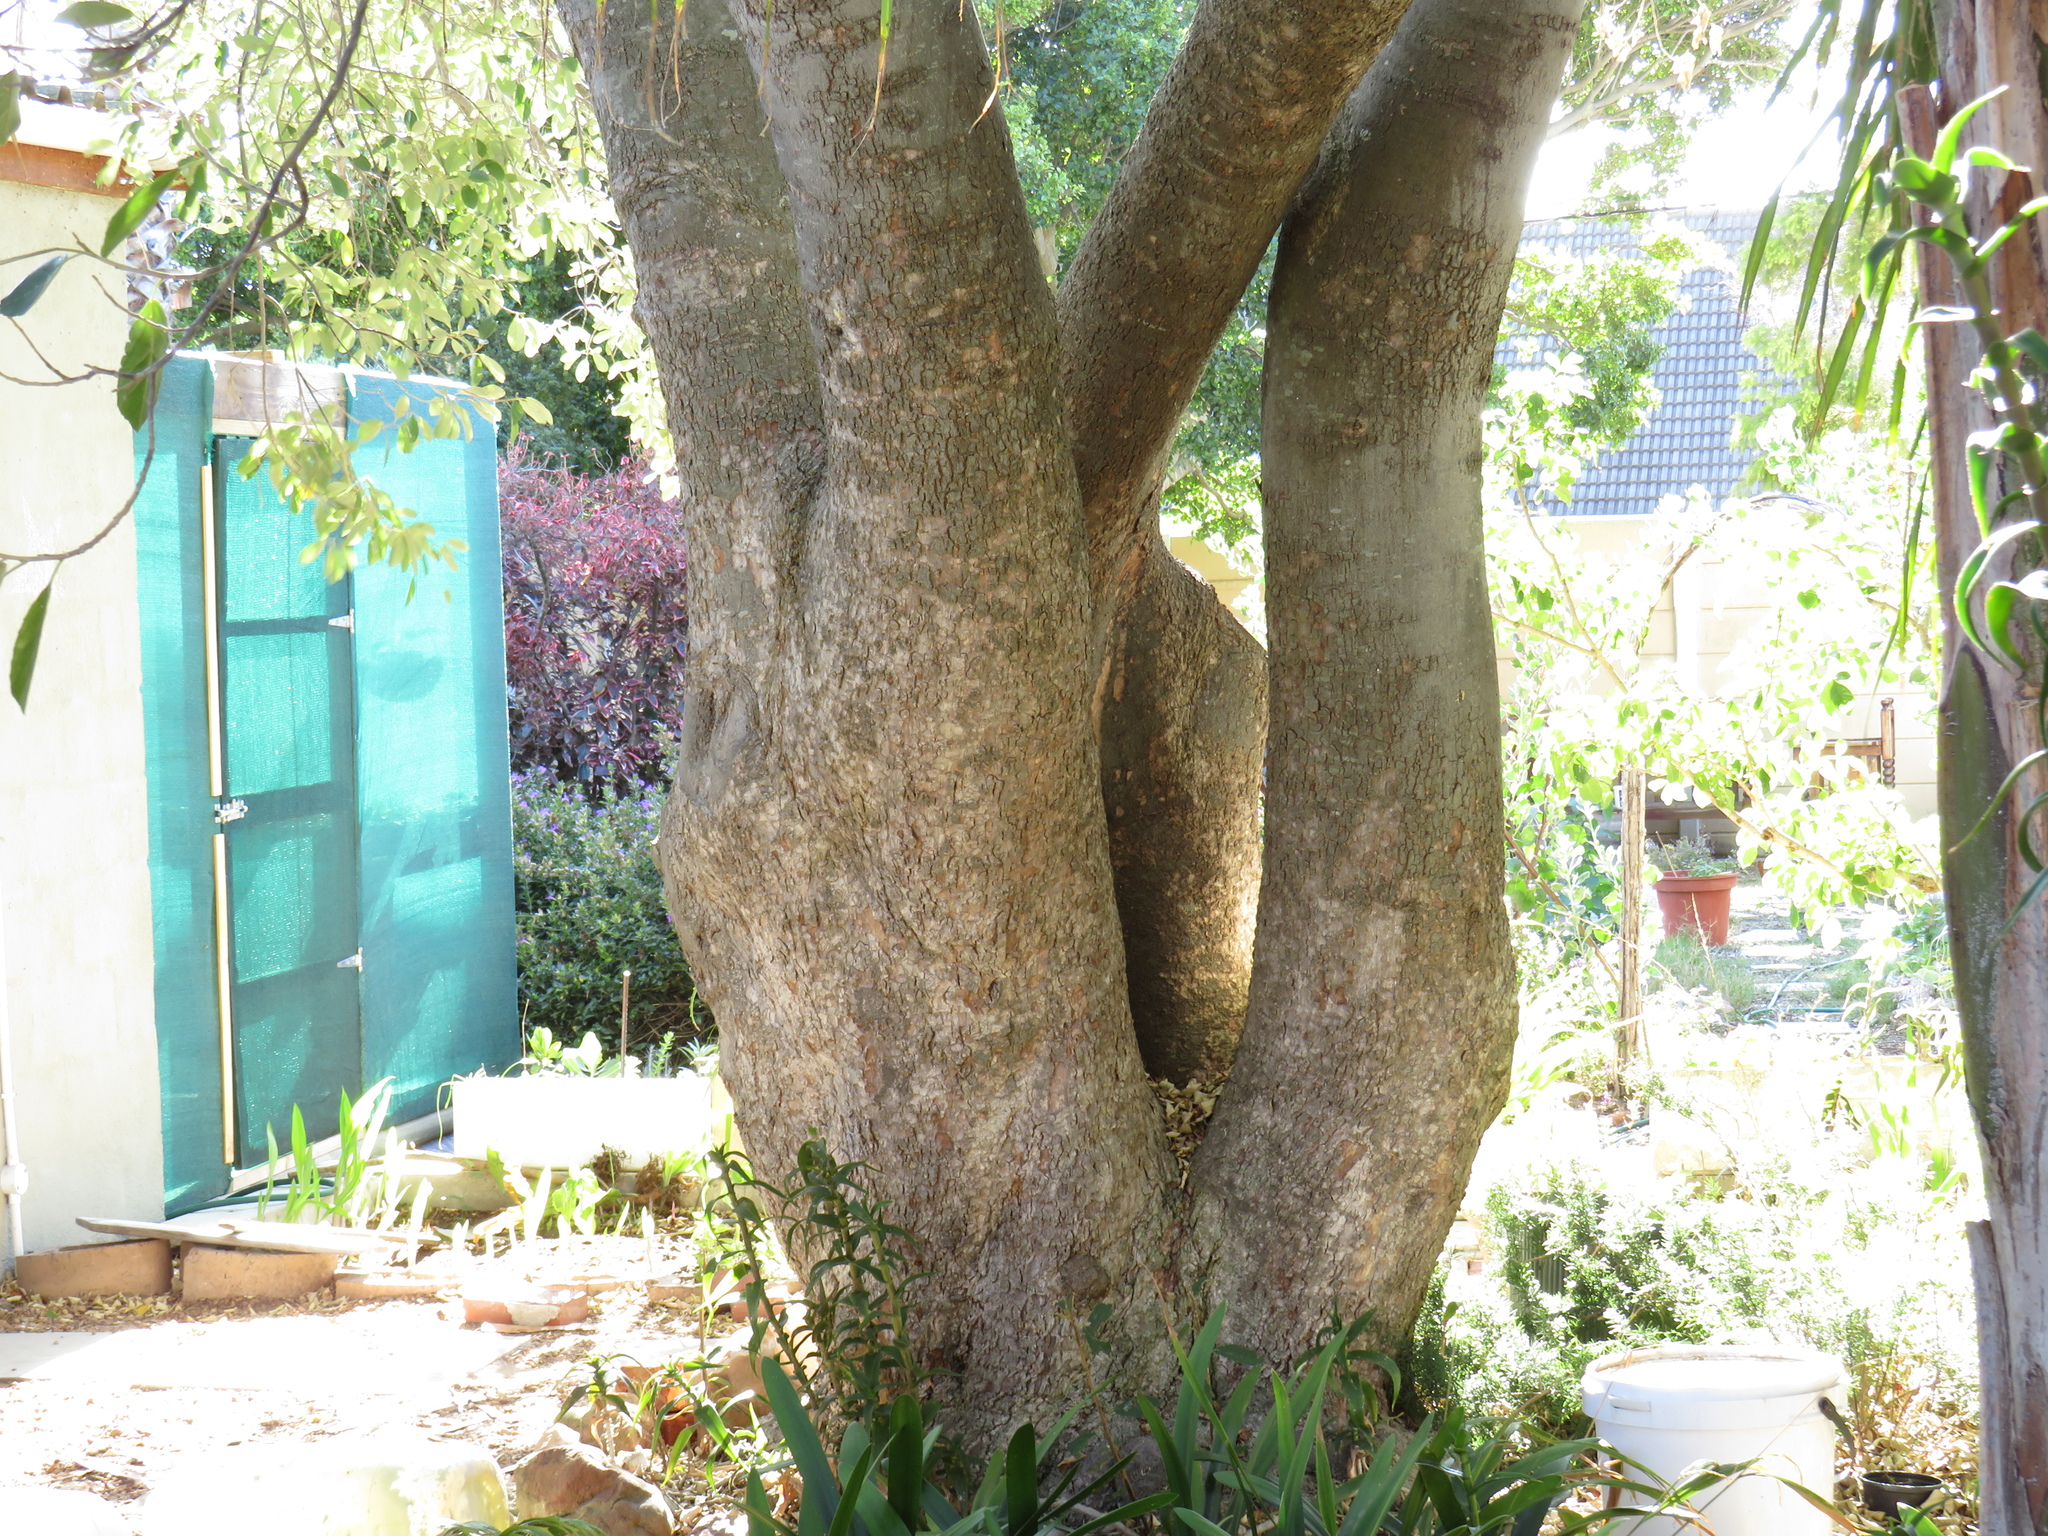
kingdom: Plantae
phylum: Tracheophyta
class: Magnoliopsida
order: Malpighiales
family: Achariaceae
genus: Kiggelaria
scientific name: Kiggelaria africana
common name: Wild peach
